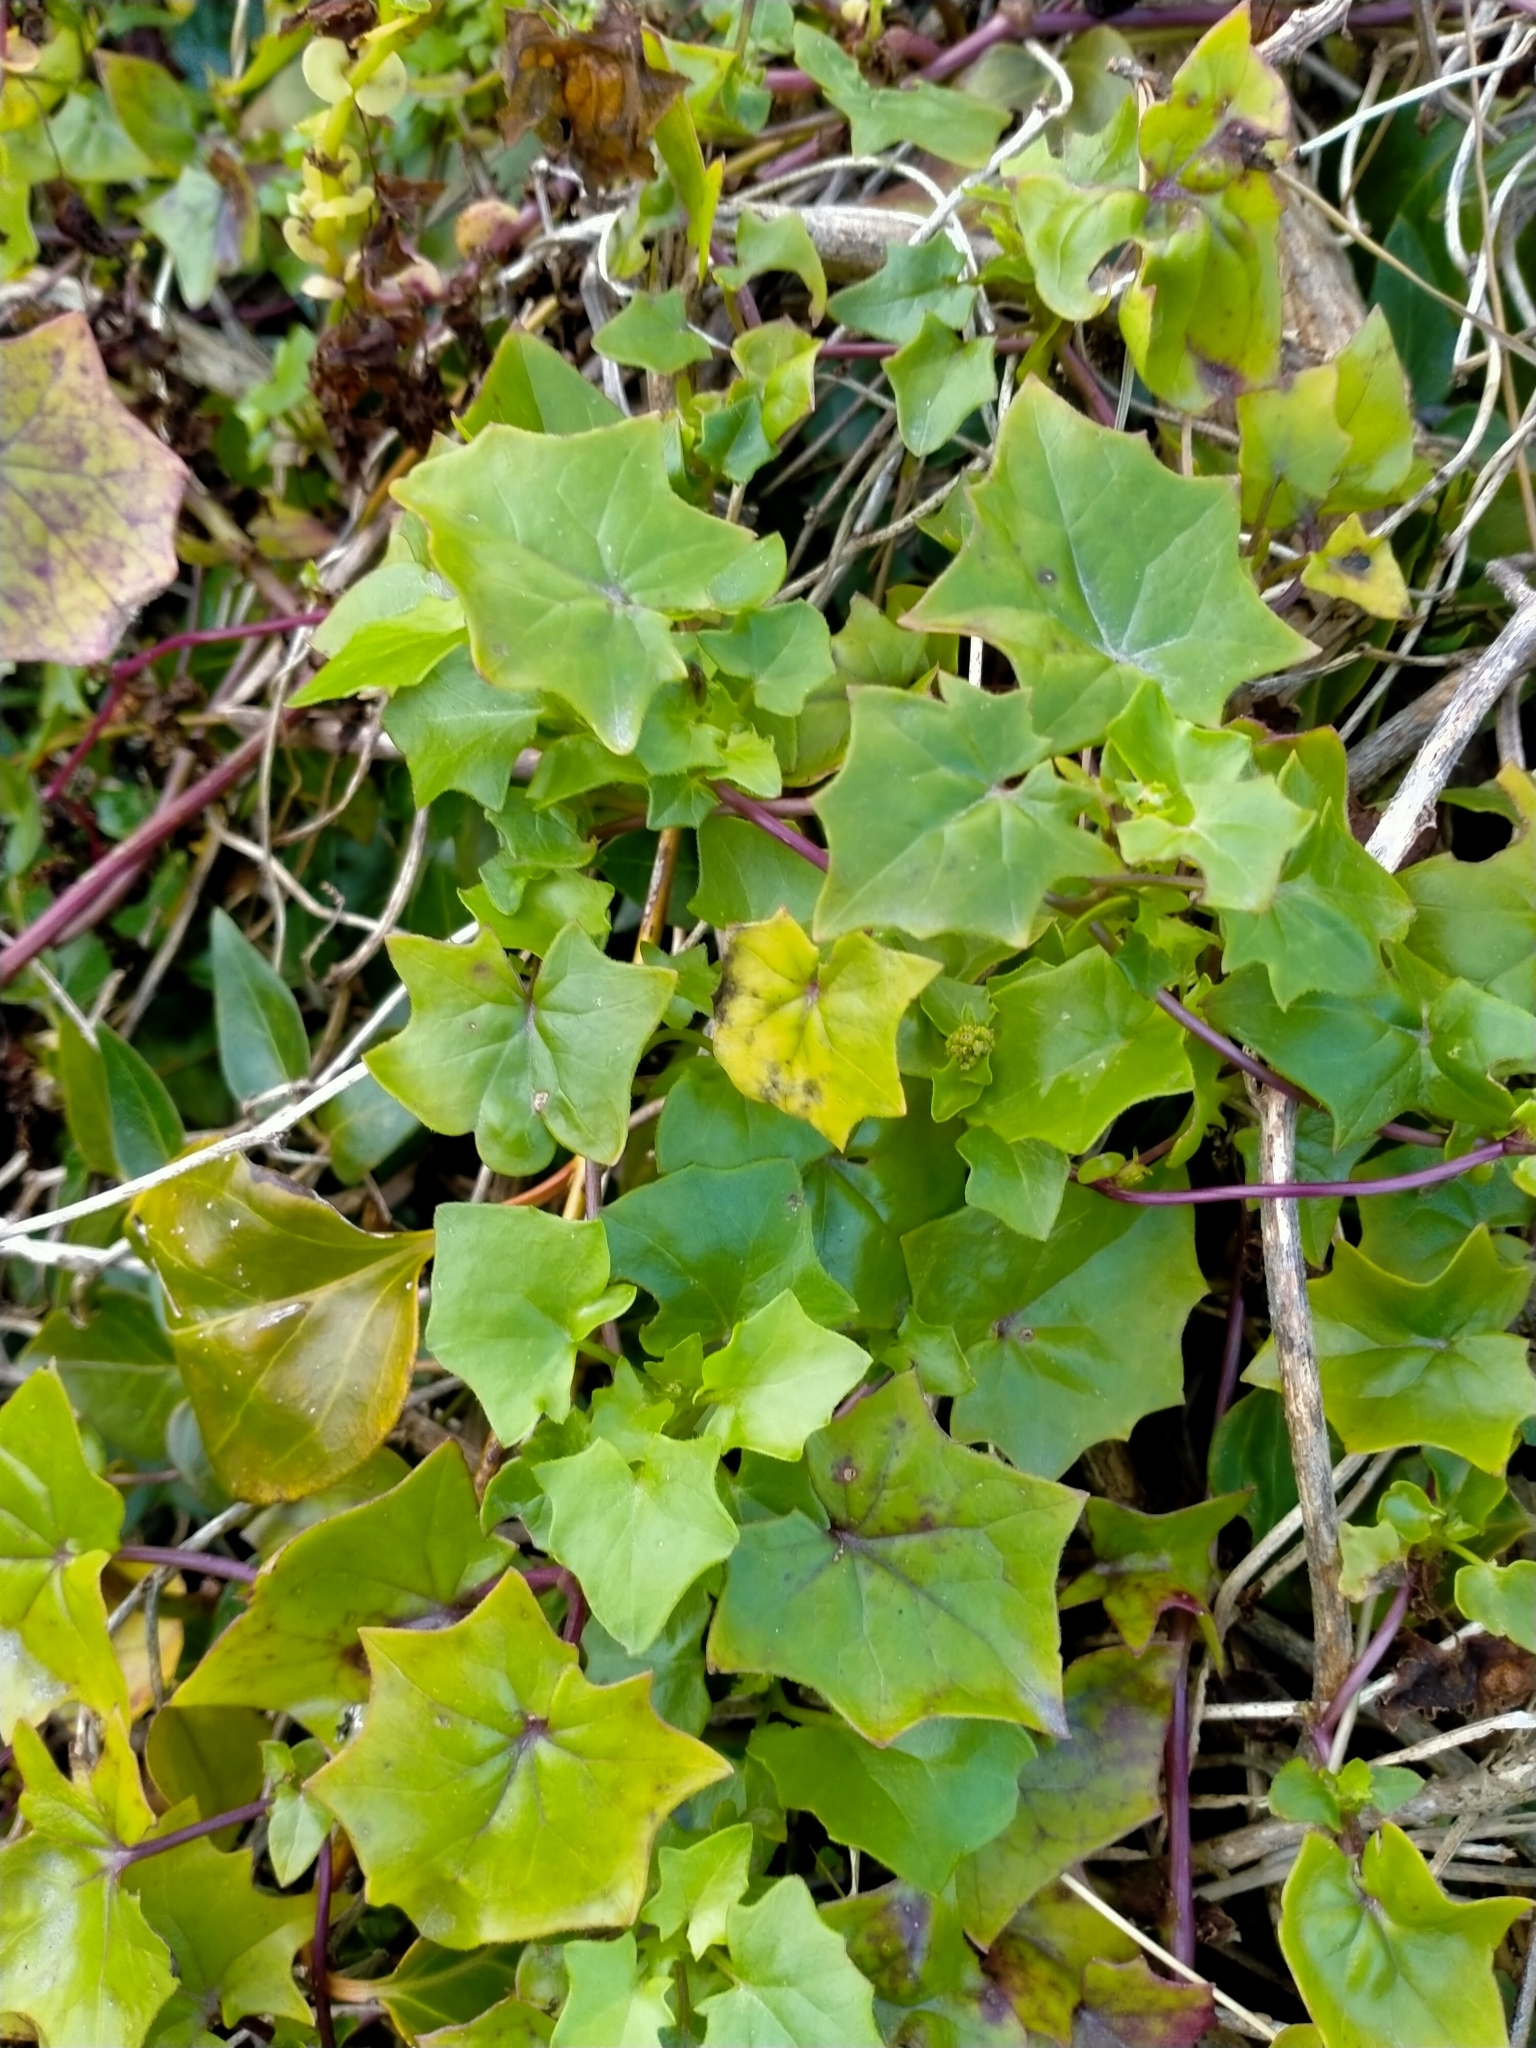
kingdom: Plantae
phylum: Tracheophyta
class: Magnoliopsida
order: Asterales
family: Asteraceae
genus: Delairea
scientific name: Delairea odorata
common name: Cape-ivy
